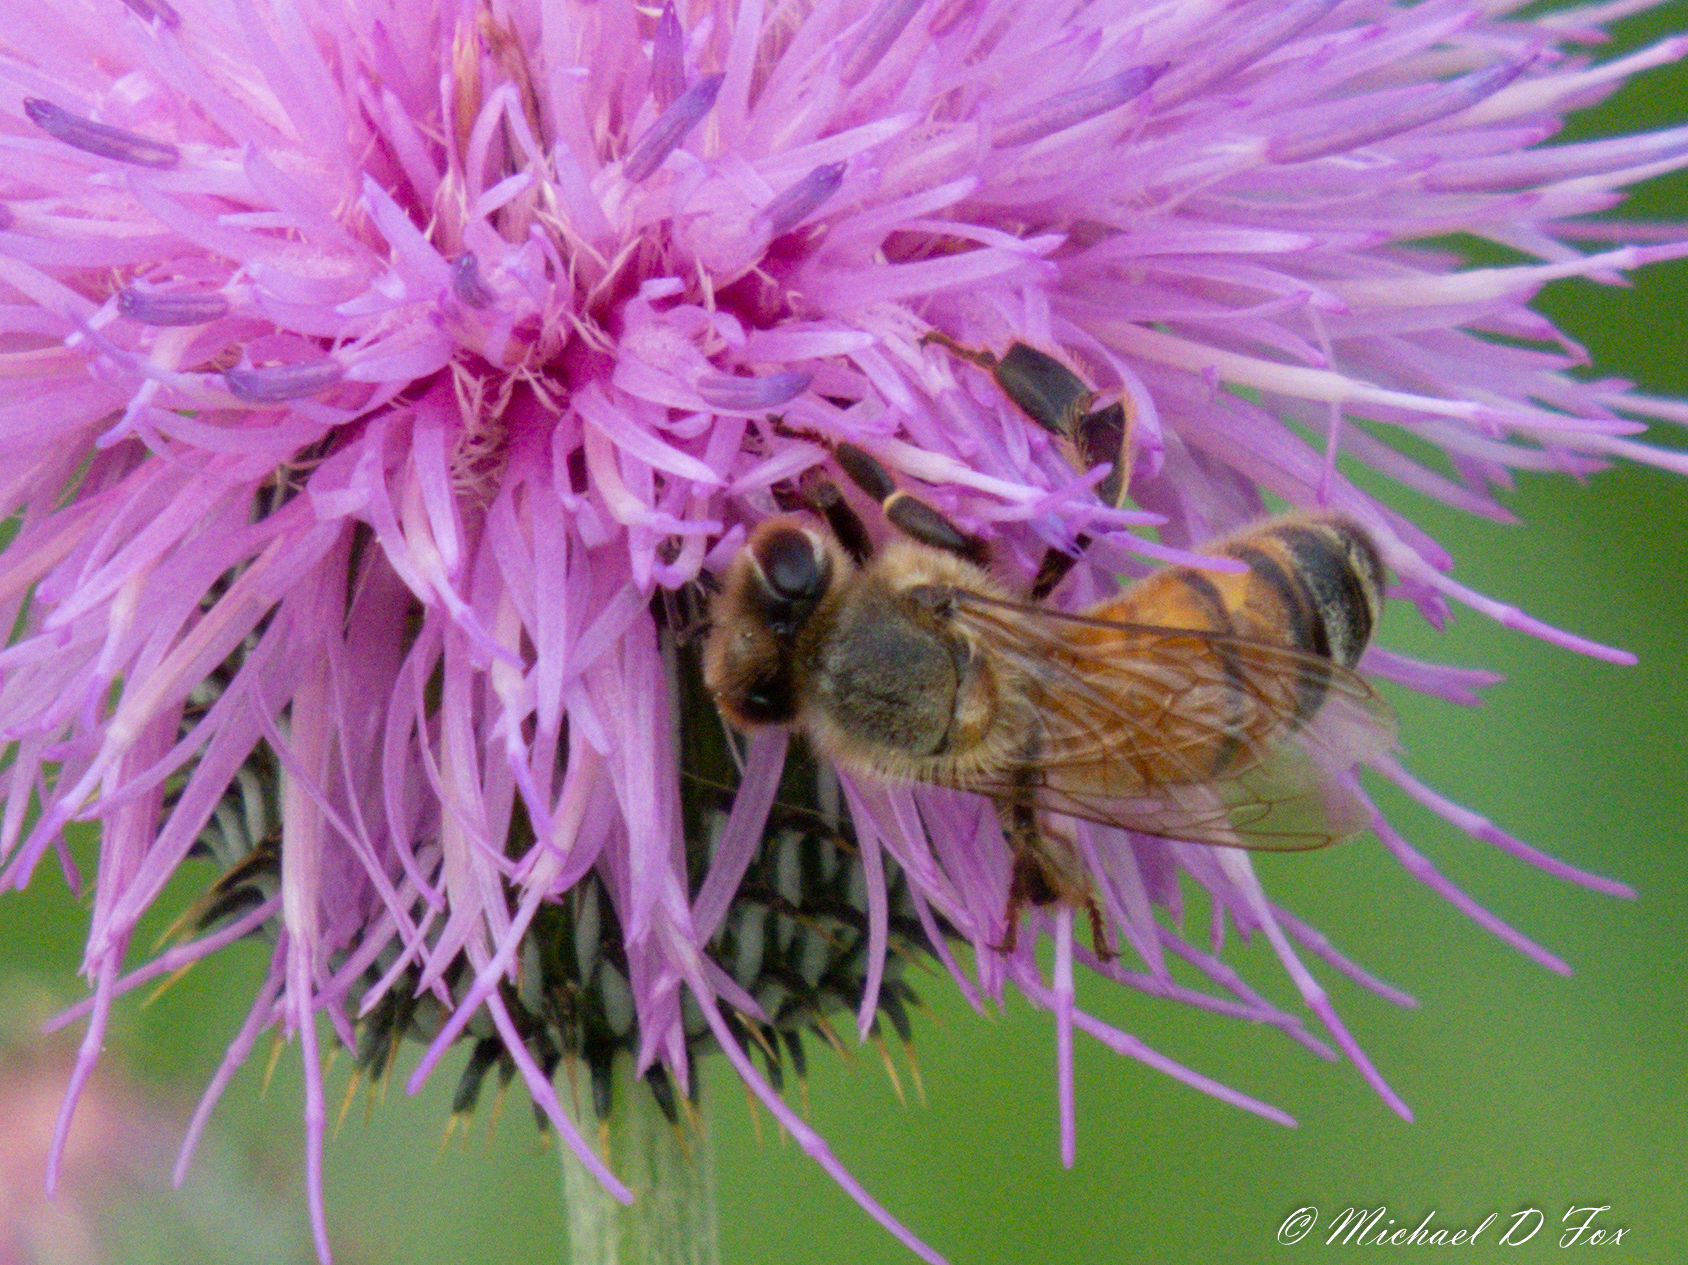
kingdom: Animalia
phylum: Arthropoda
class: Insecta
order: Hymenoptera
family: Apidae
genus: Apis
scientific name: Apis mellifera
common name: Honey bee
